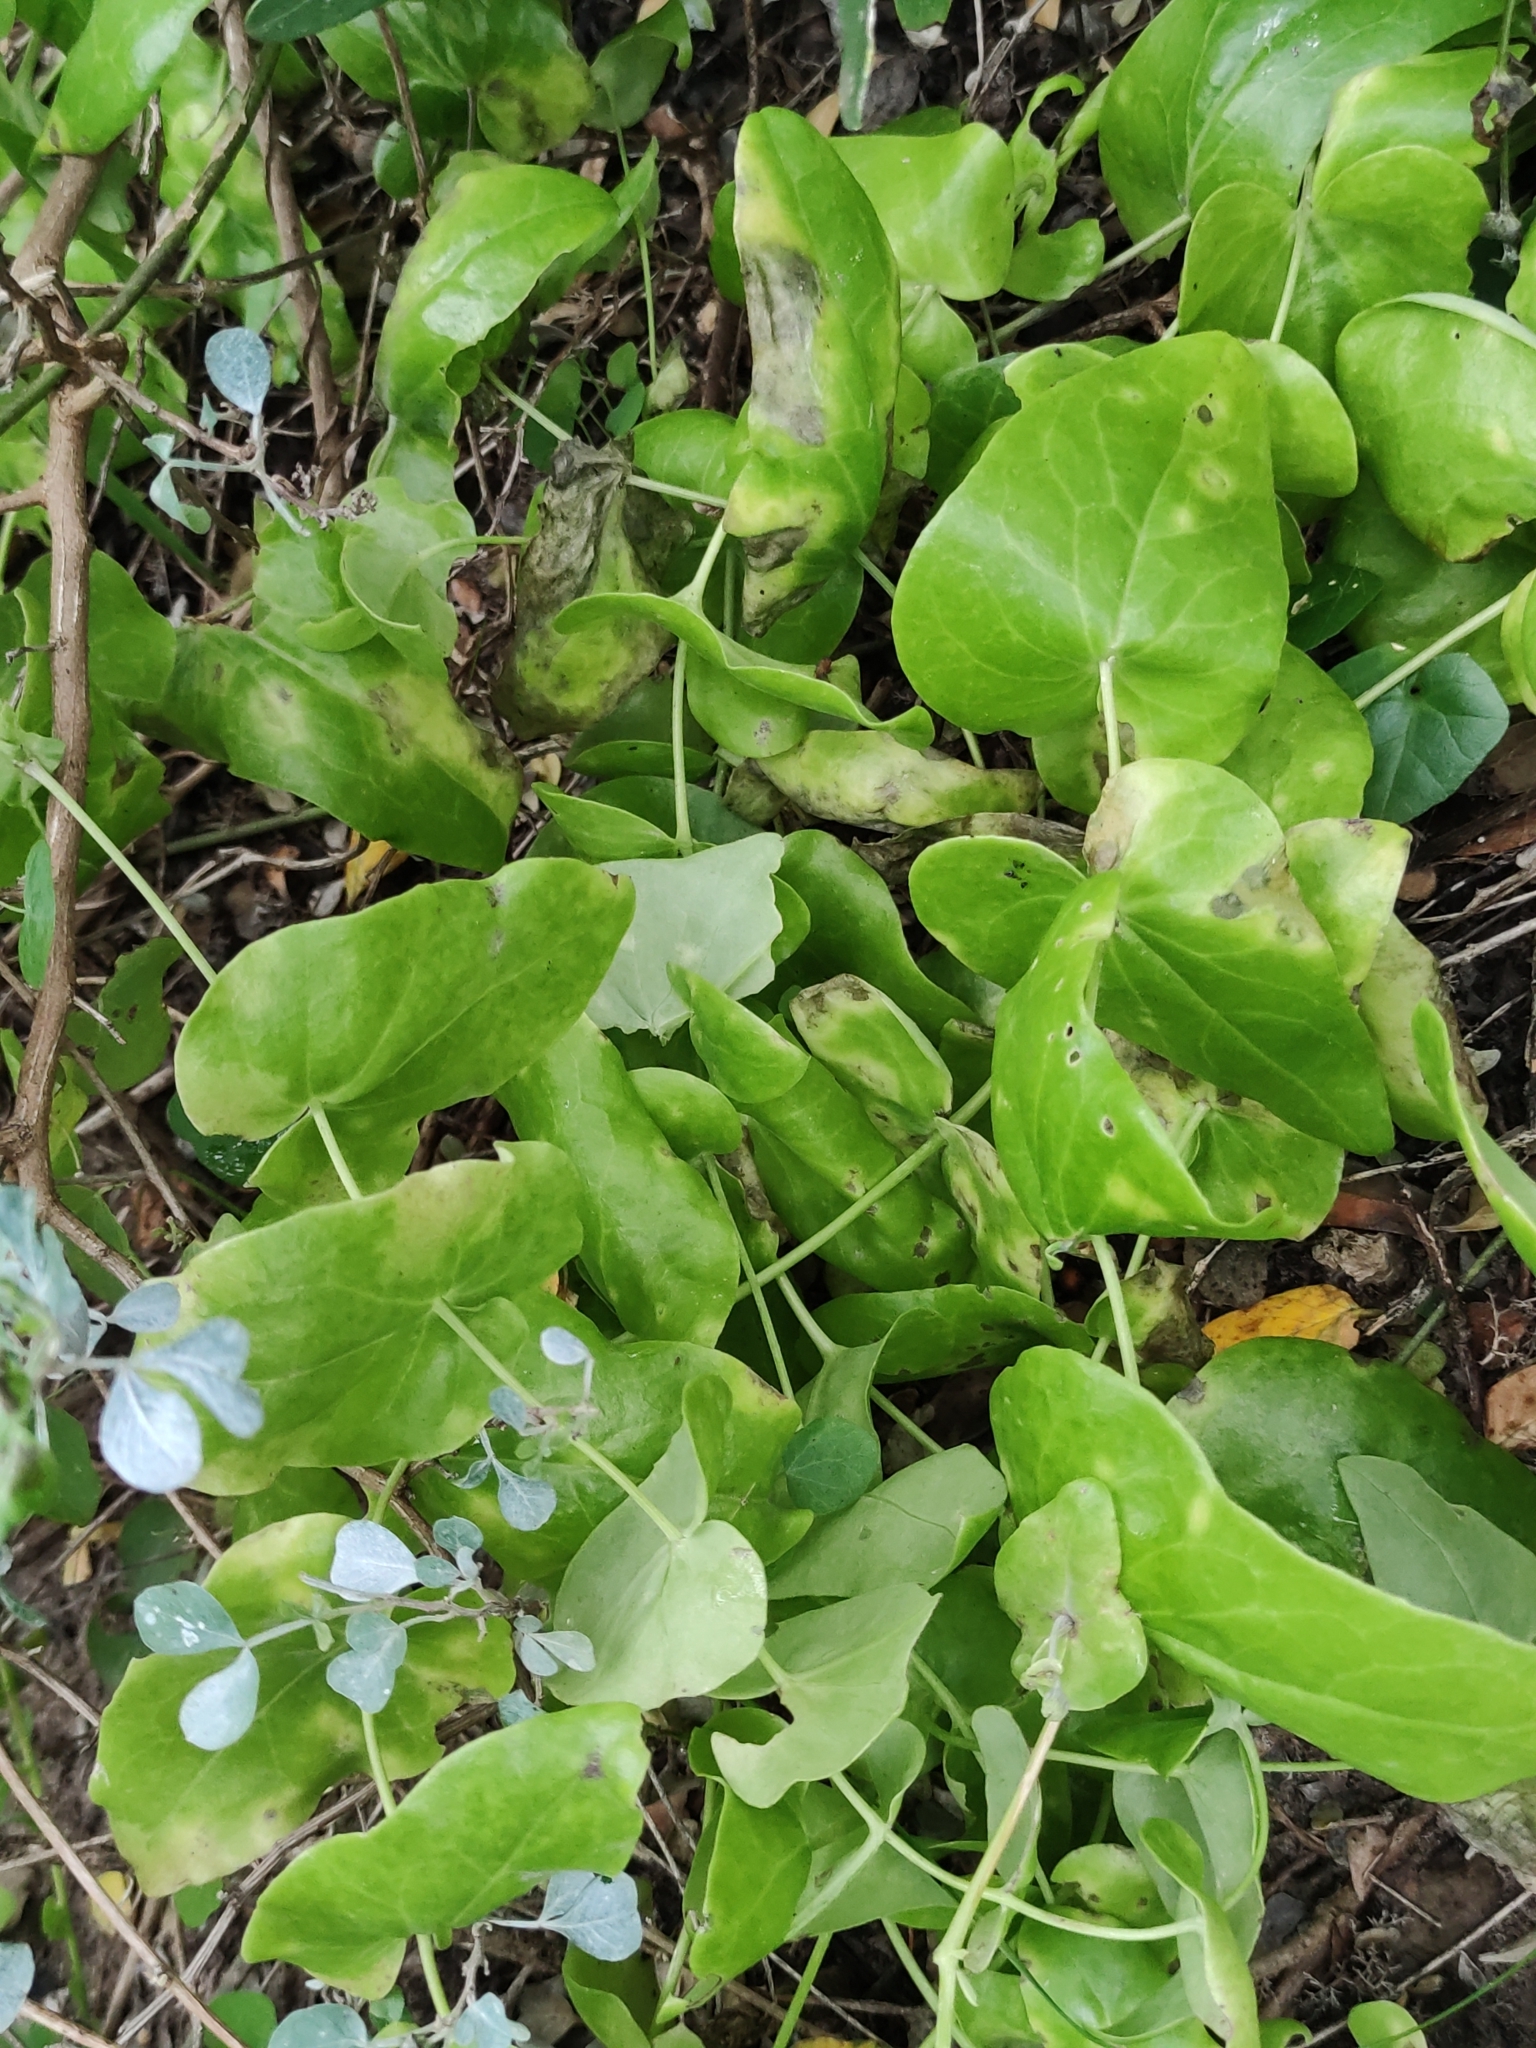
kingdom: Plantae
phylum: Tracheophyta
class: Magnoliopsida
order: Asterales
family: Asteraceae
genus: Othonna
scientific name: Othonna undulosa
